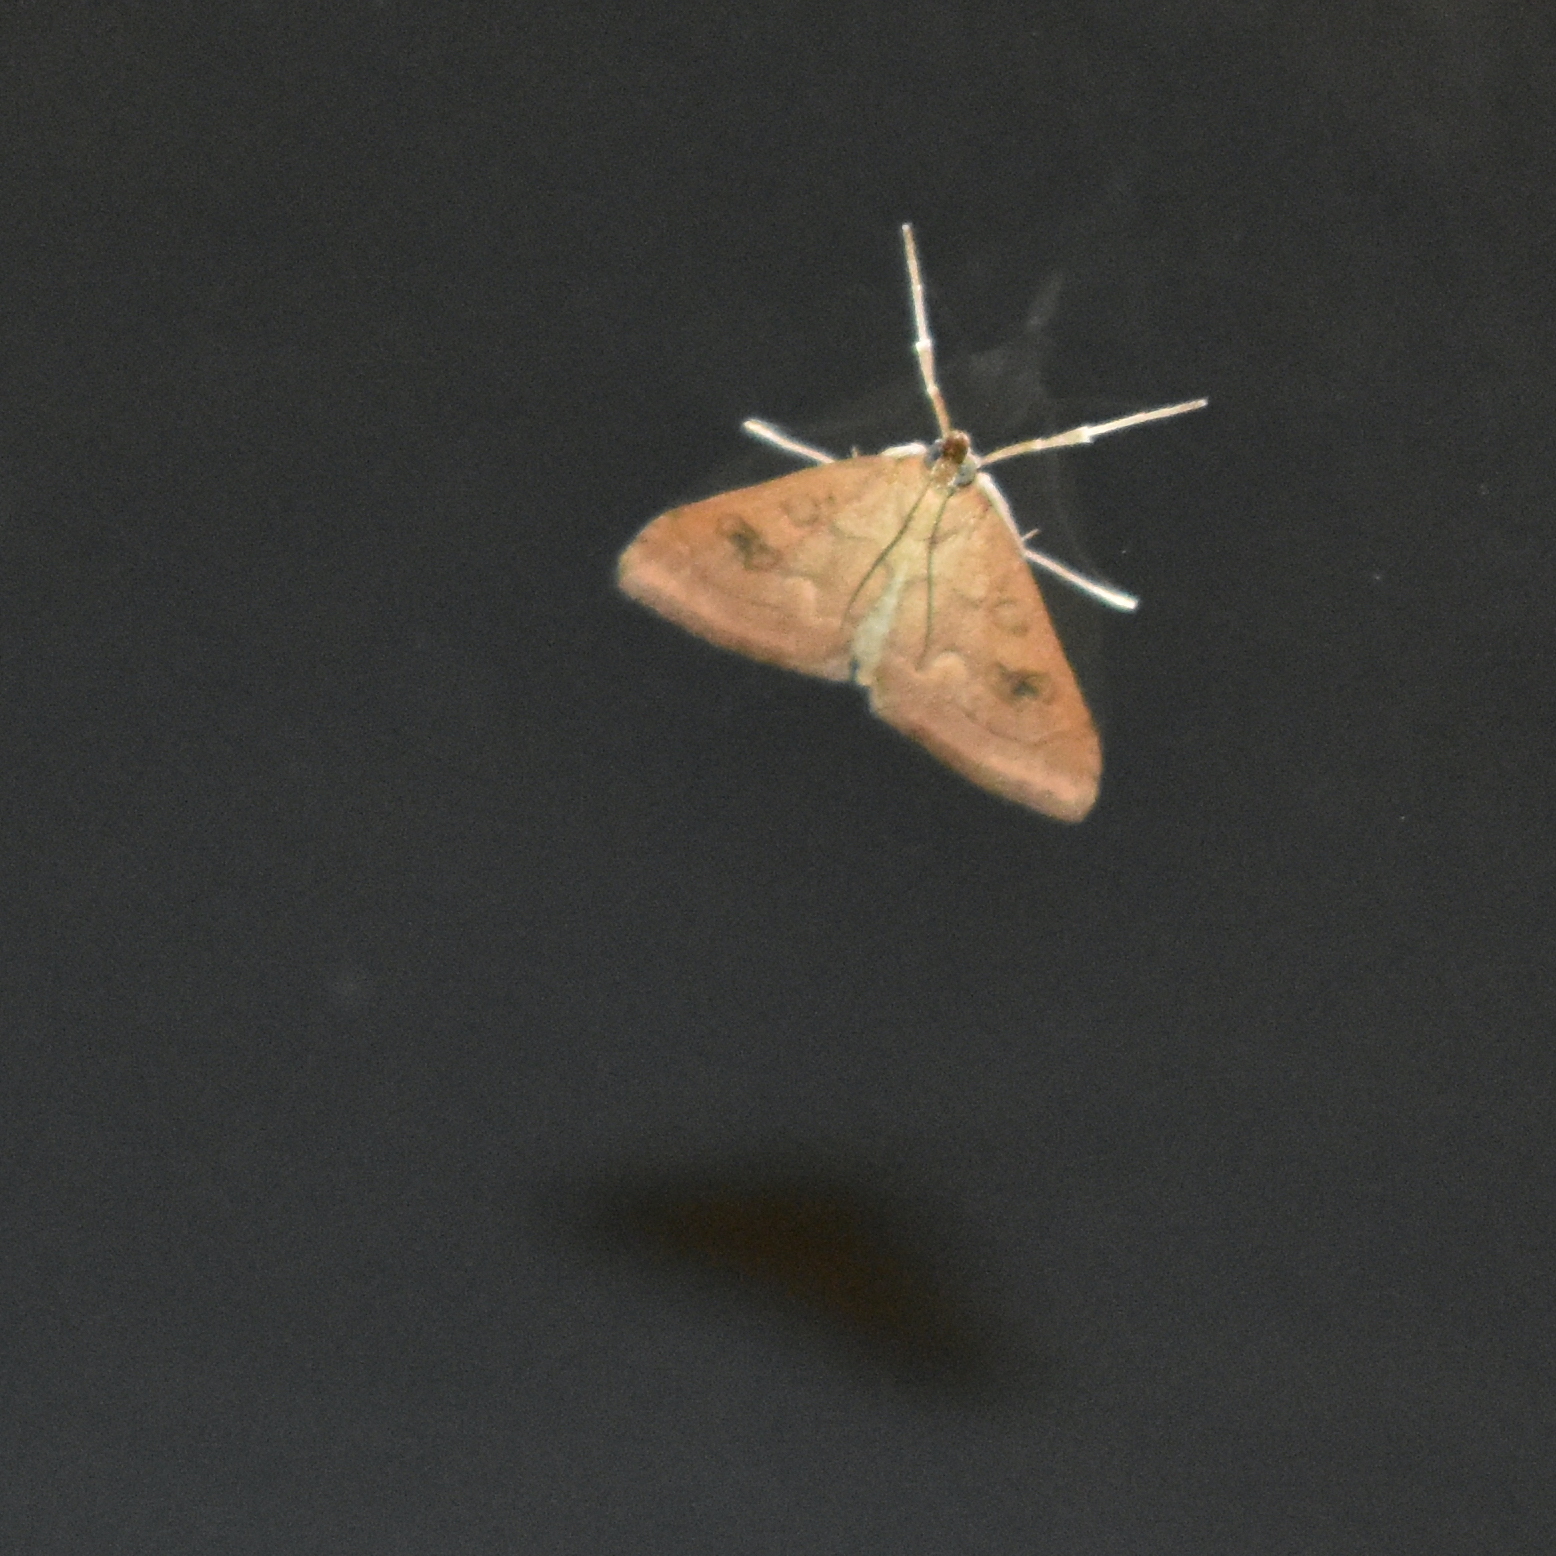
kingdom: Animalia
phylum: Arthropoda
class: Insecta
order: Lepidoptera
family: Crambidae
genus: Udea
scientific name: Udea profundalis
